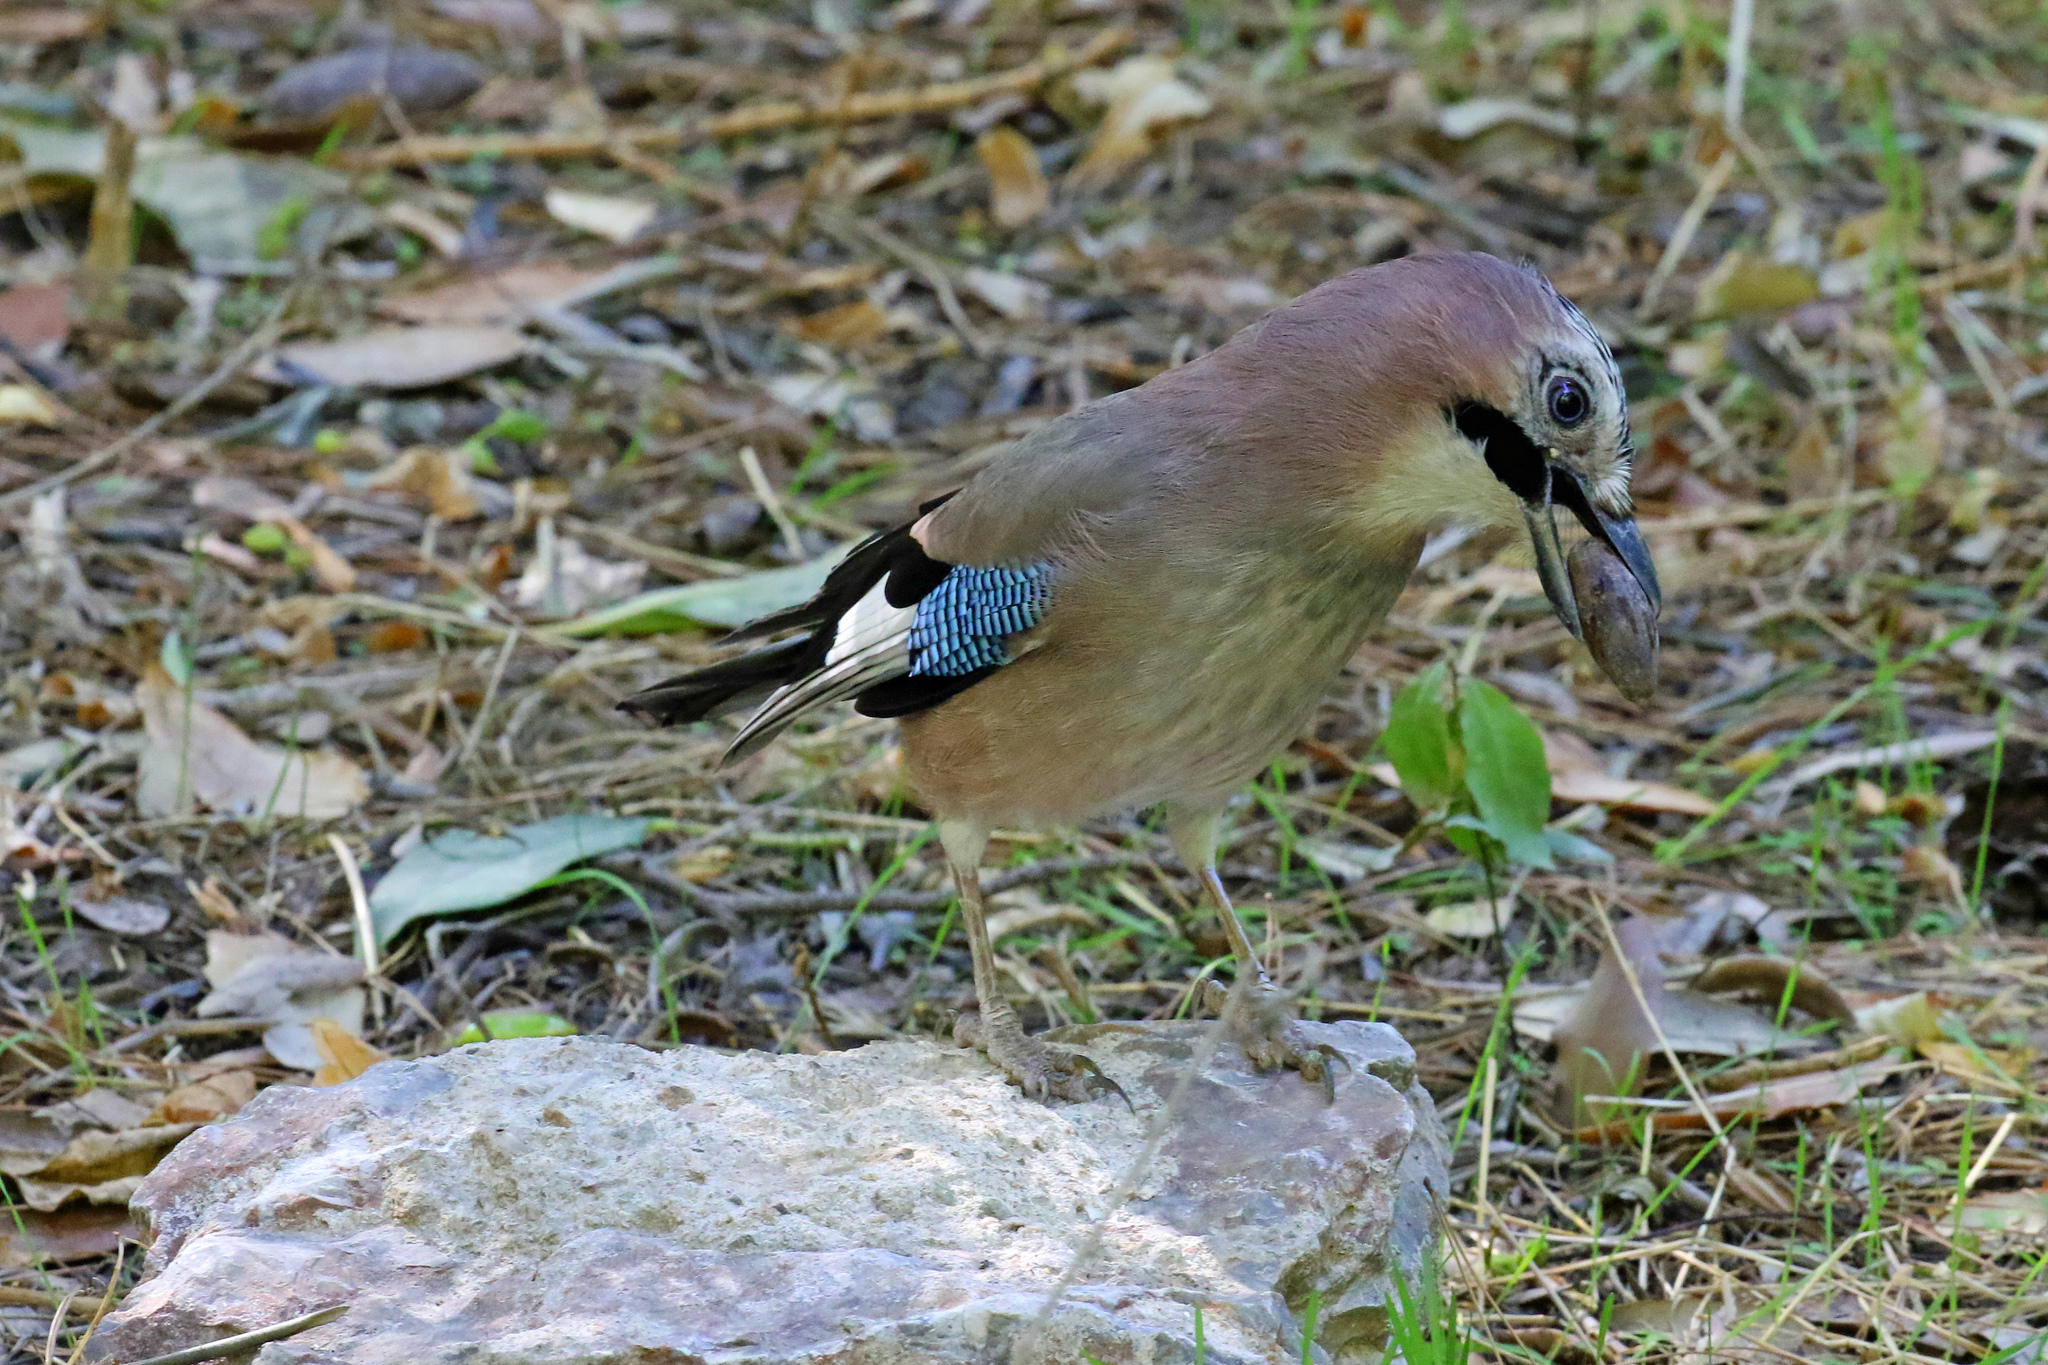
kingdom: Animalia
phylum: Chordata
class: Aves
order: Passeriformes
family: Corvidae
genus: Garrulus
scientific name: Garrulus glandarius
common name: Eurasian jay
